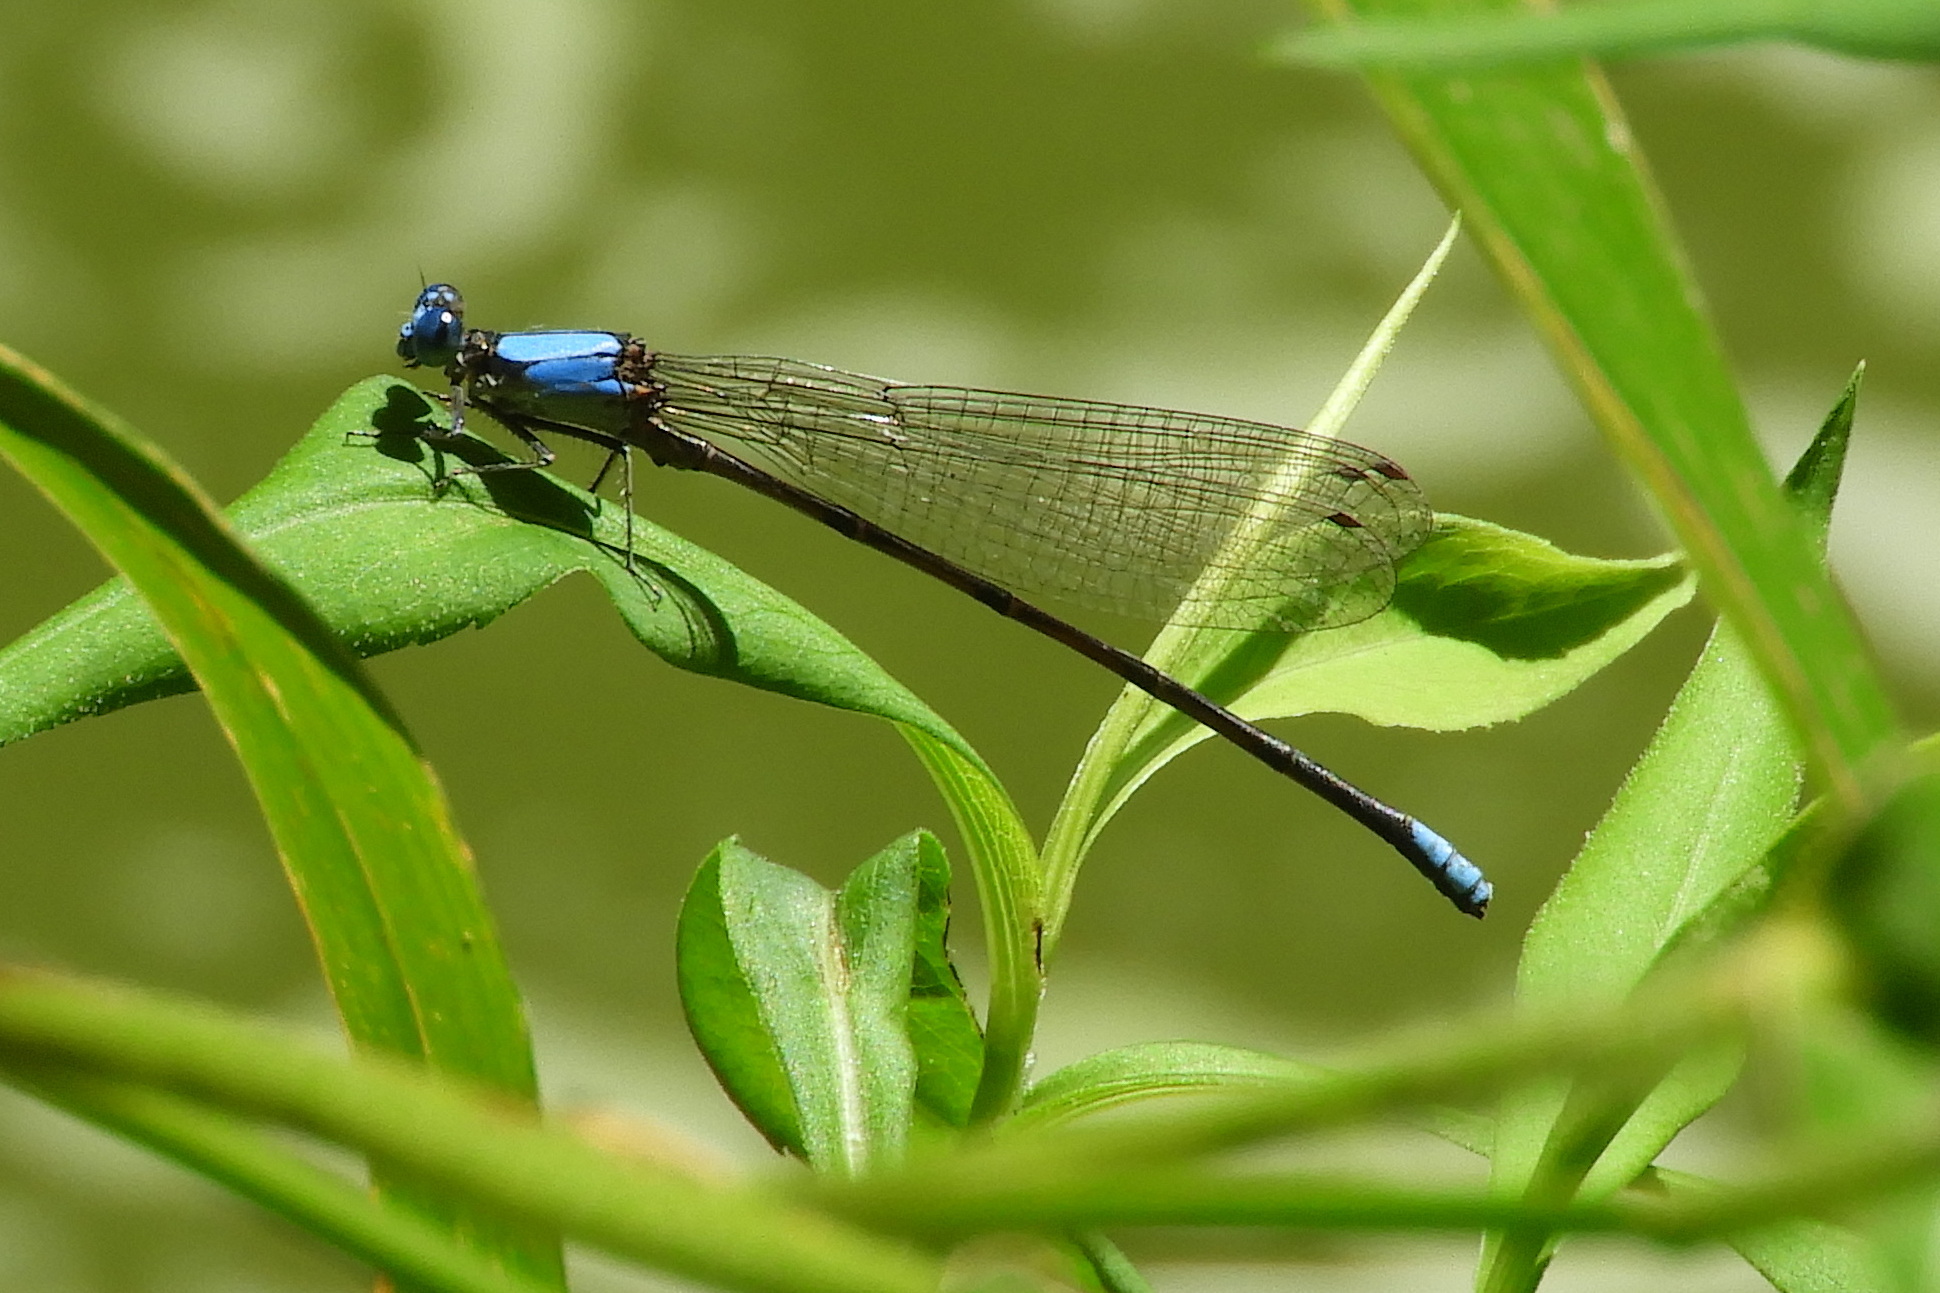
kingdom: Animalia
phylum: Arthropoda
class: Insecta
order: Odonata
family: Coenagrionidae
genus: Argia
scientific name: Argia apicalis
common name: Blue-fronted dancer
